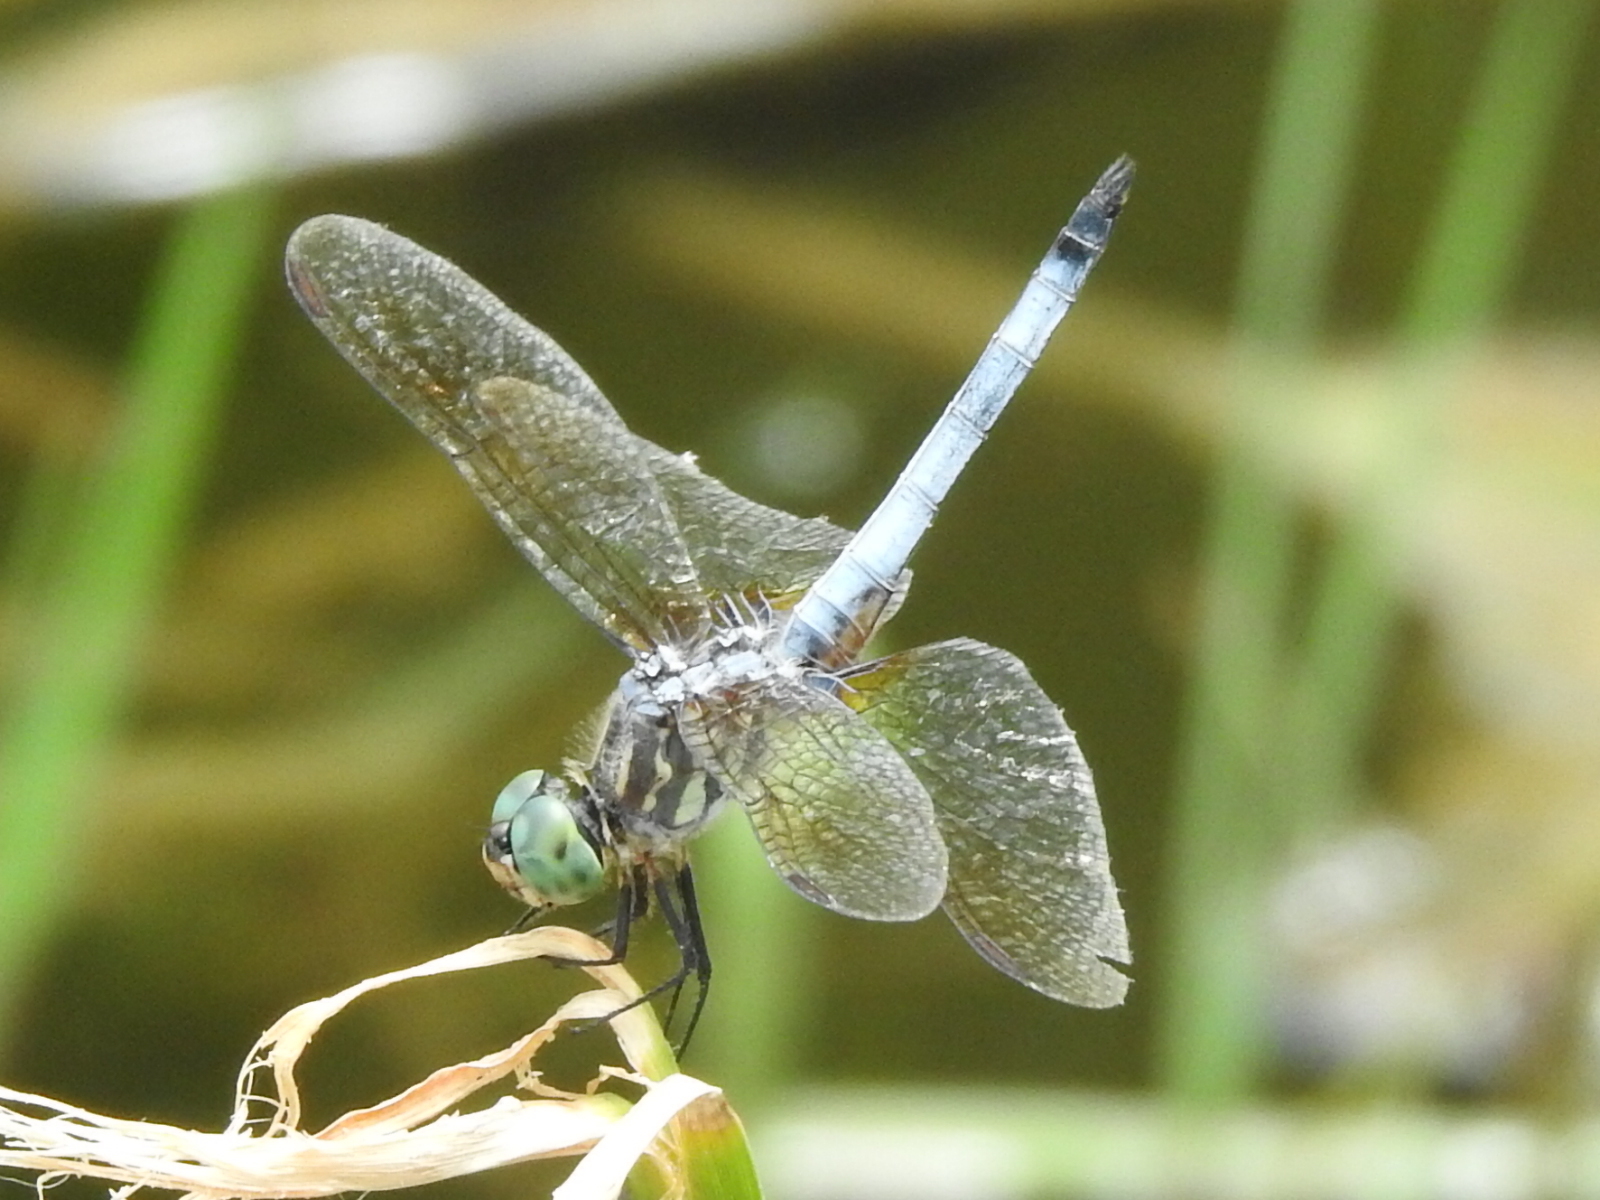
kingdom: Animalia
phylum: Arthropoda
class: Insecta
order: Odonata
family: Libellulidae
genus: Pachydiplax
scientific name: Pachydiplax longipennis
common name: Blue dasher
